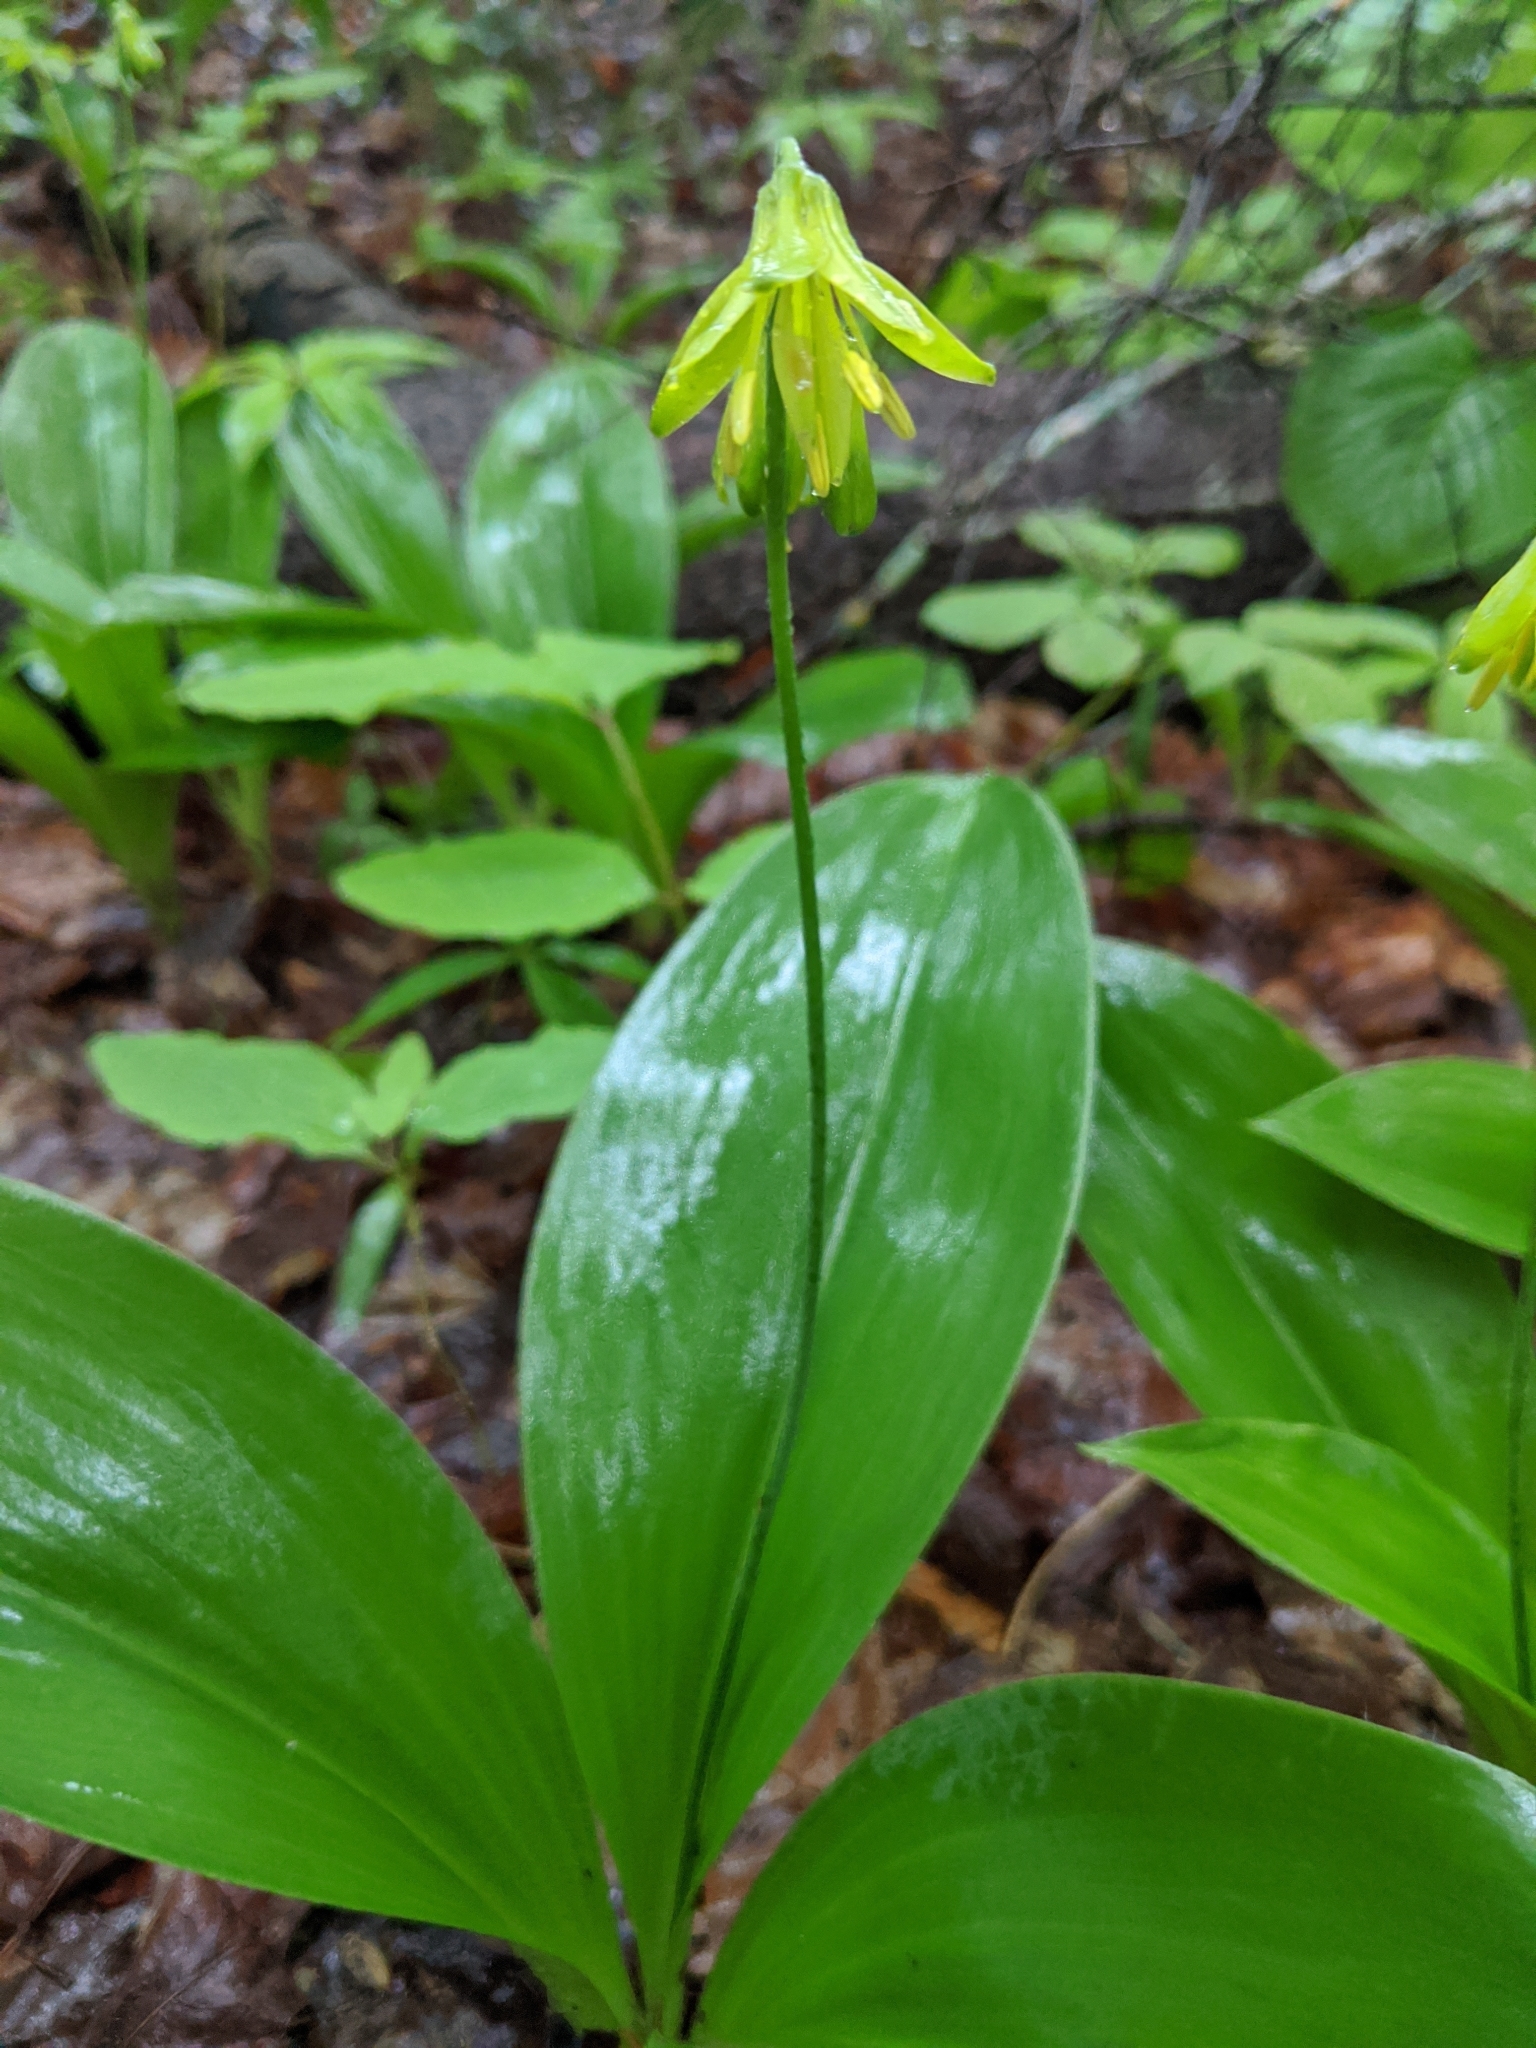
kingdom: Plantae
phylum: Tracheophyta
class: Liliopsida
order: Liliales
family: Liliaceae
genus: Clintonia
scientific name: Clintonia borealis
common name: Yellow clintonia
